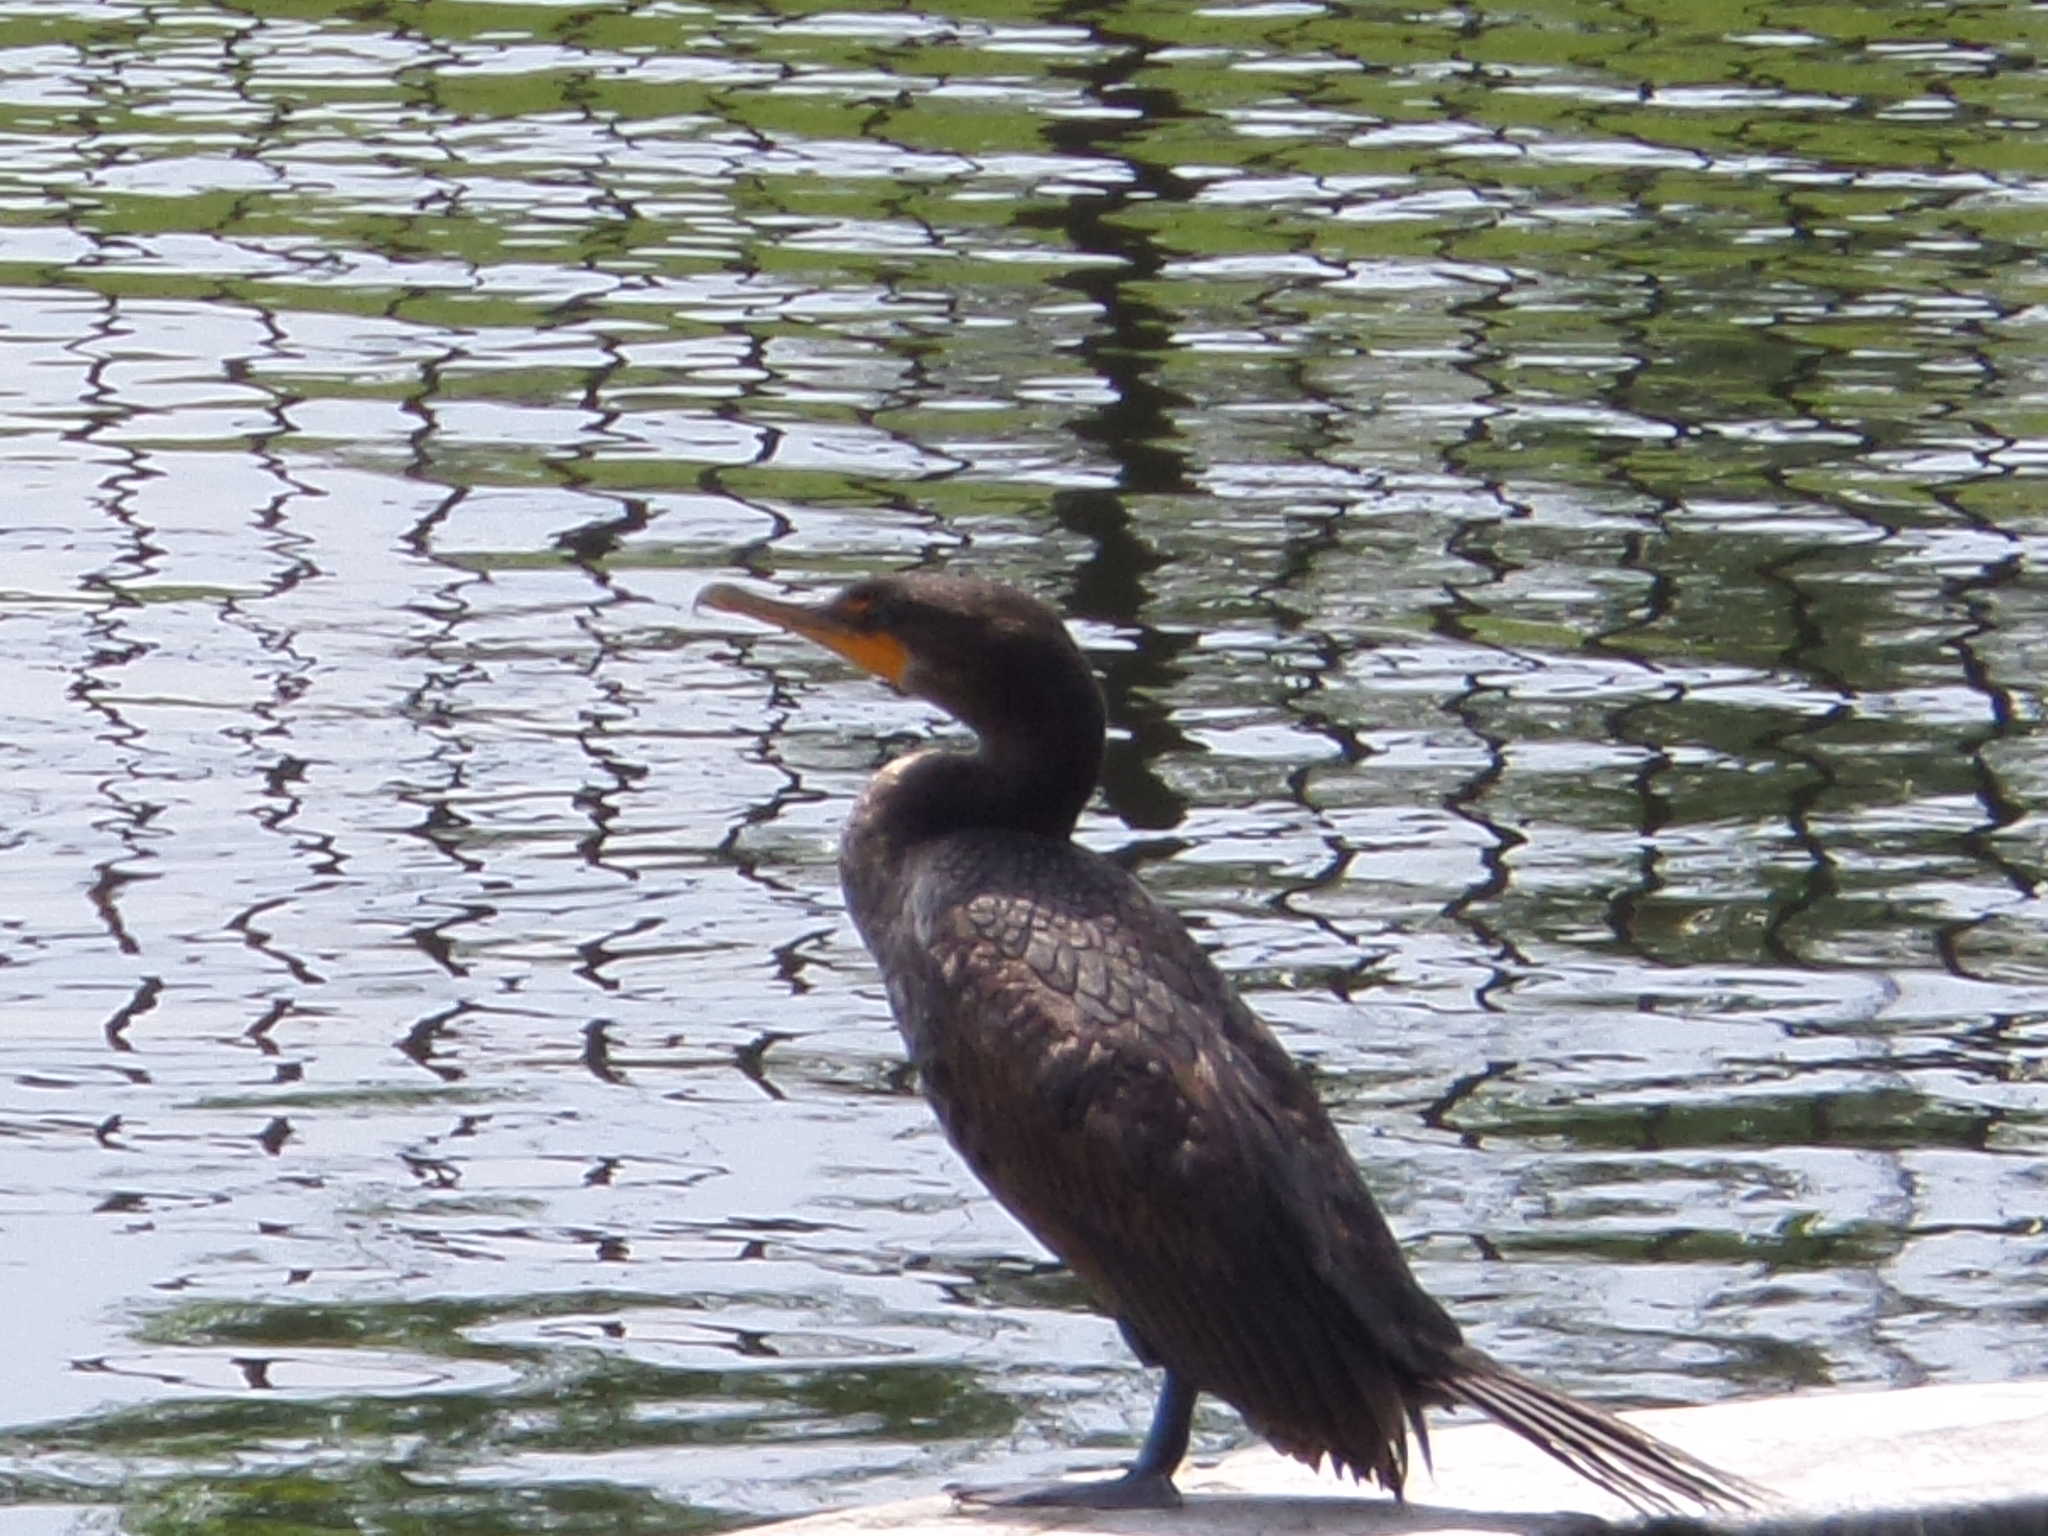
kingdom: Animalia
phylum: Chordata
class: Aves
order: Suliformes
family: Phalacrocoracidae
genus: Phalacrocorax
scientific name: Phalacrocorax auritus
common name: Double-crested cormorant
